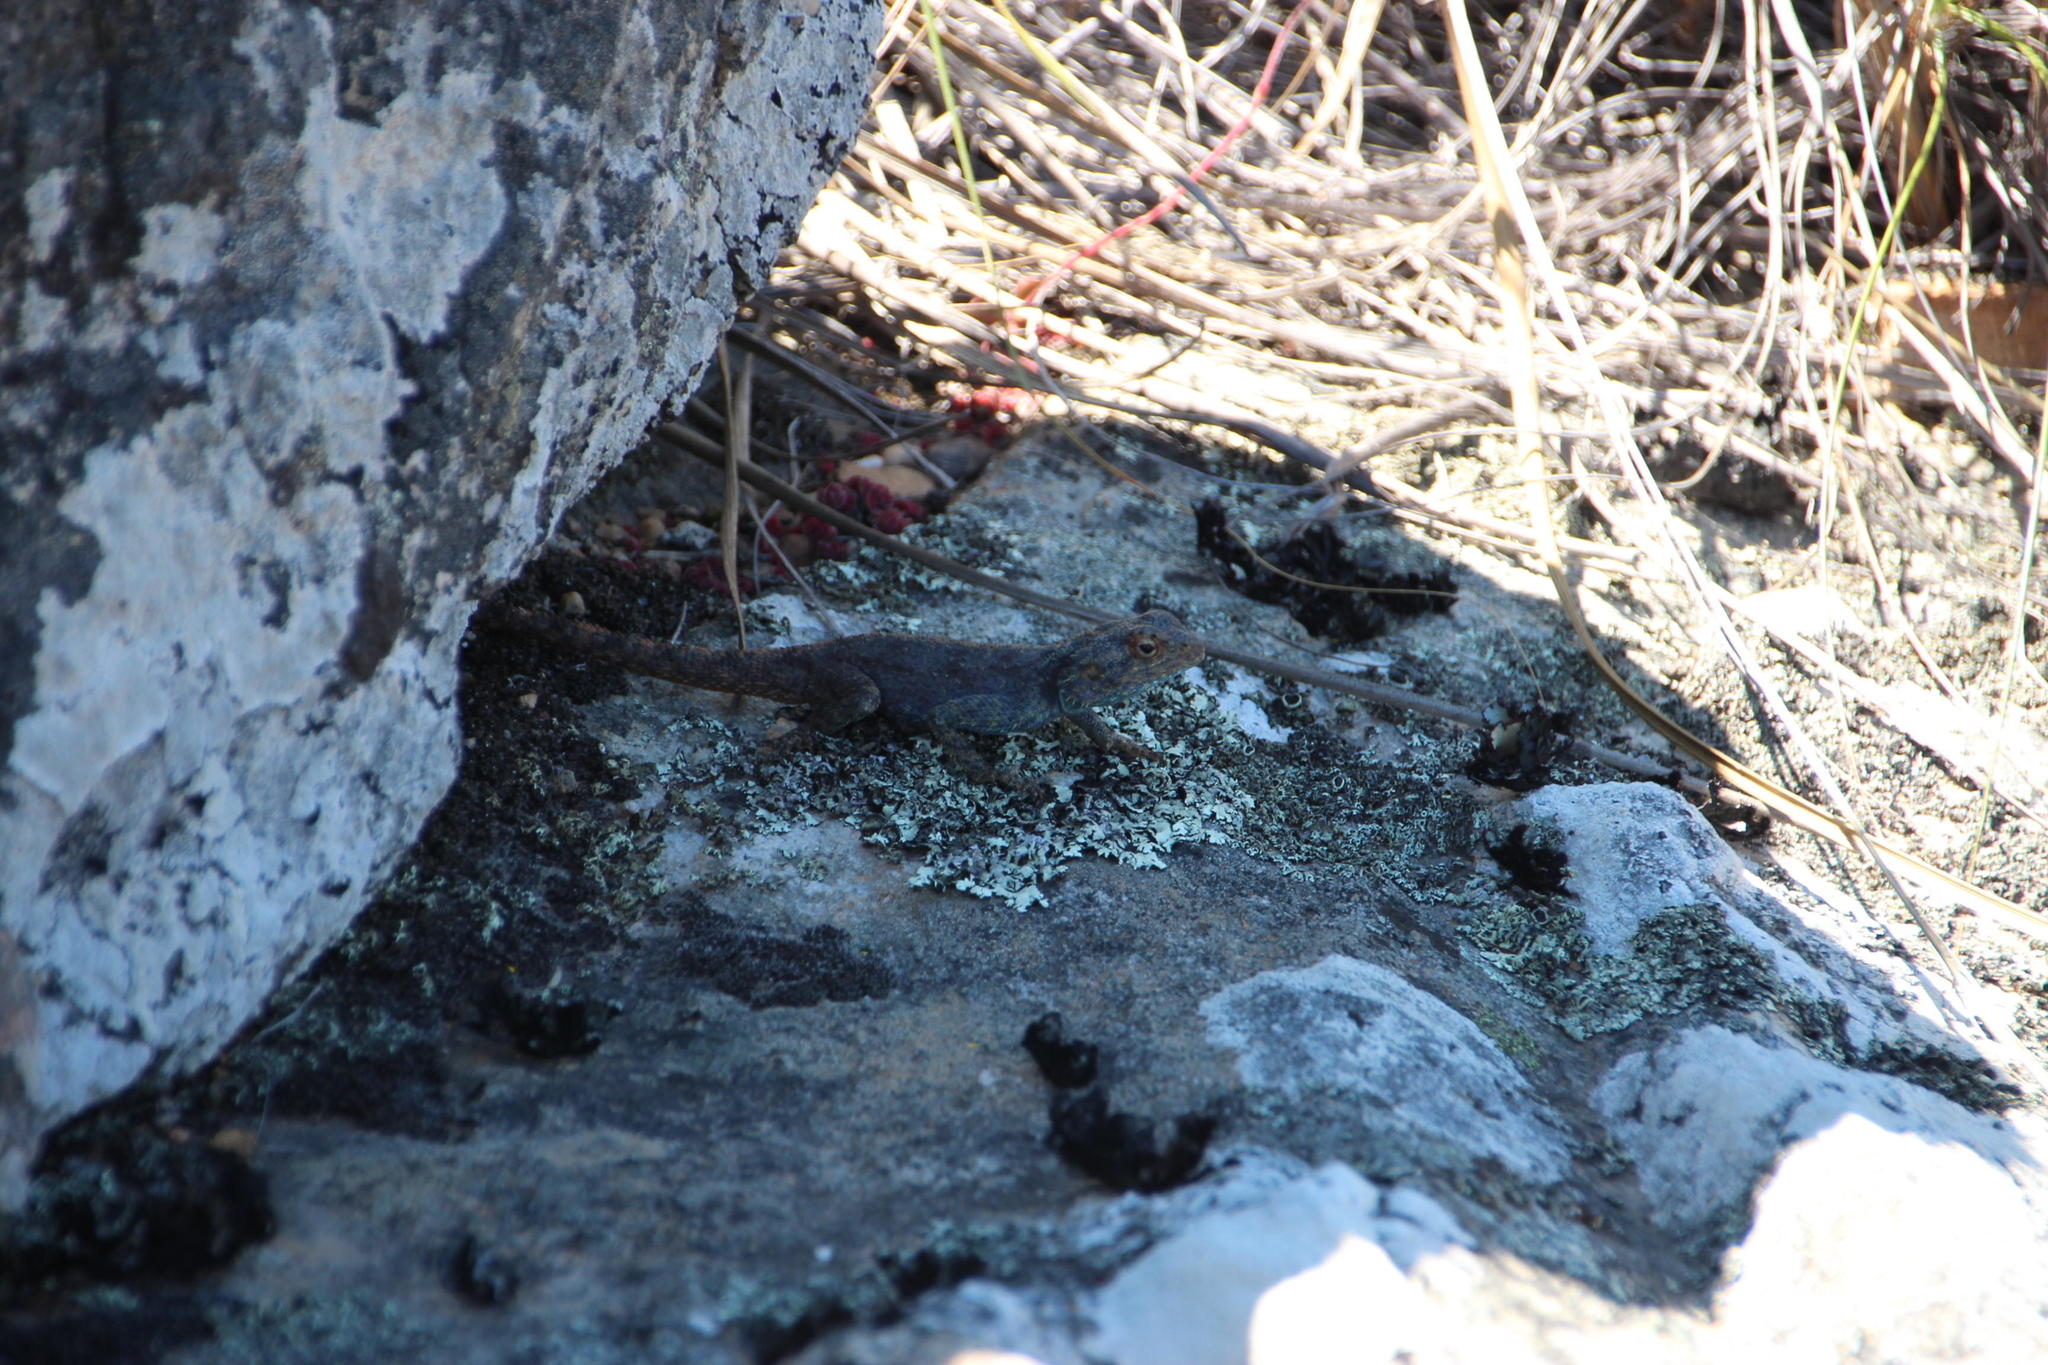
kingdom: Animalia
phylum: Chordata
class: Squamata
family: Agamidae
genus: Agama
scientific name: Agama atra
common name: Southern african rock agama
